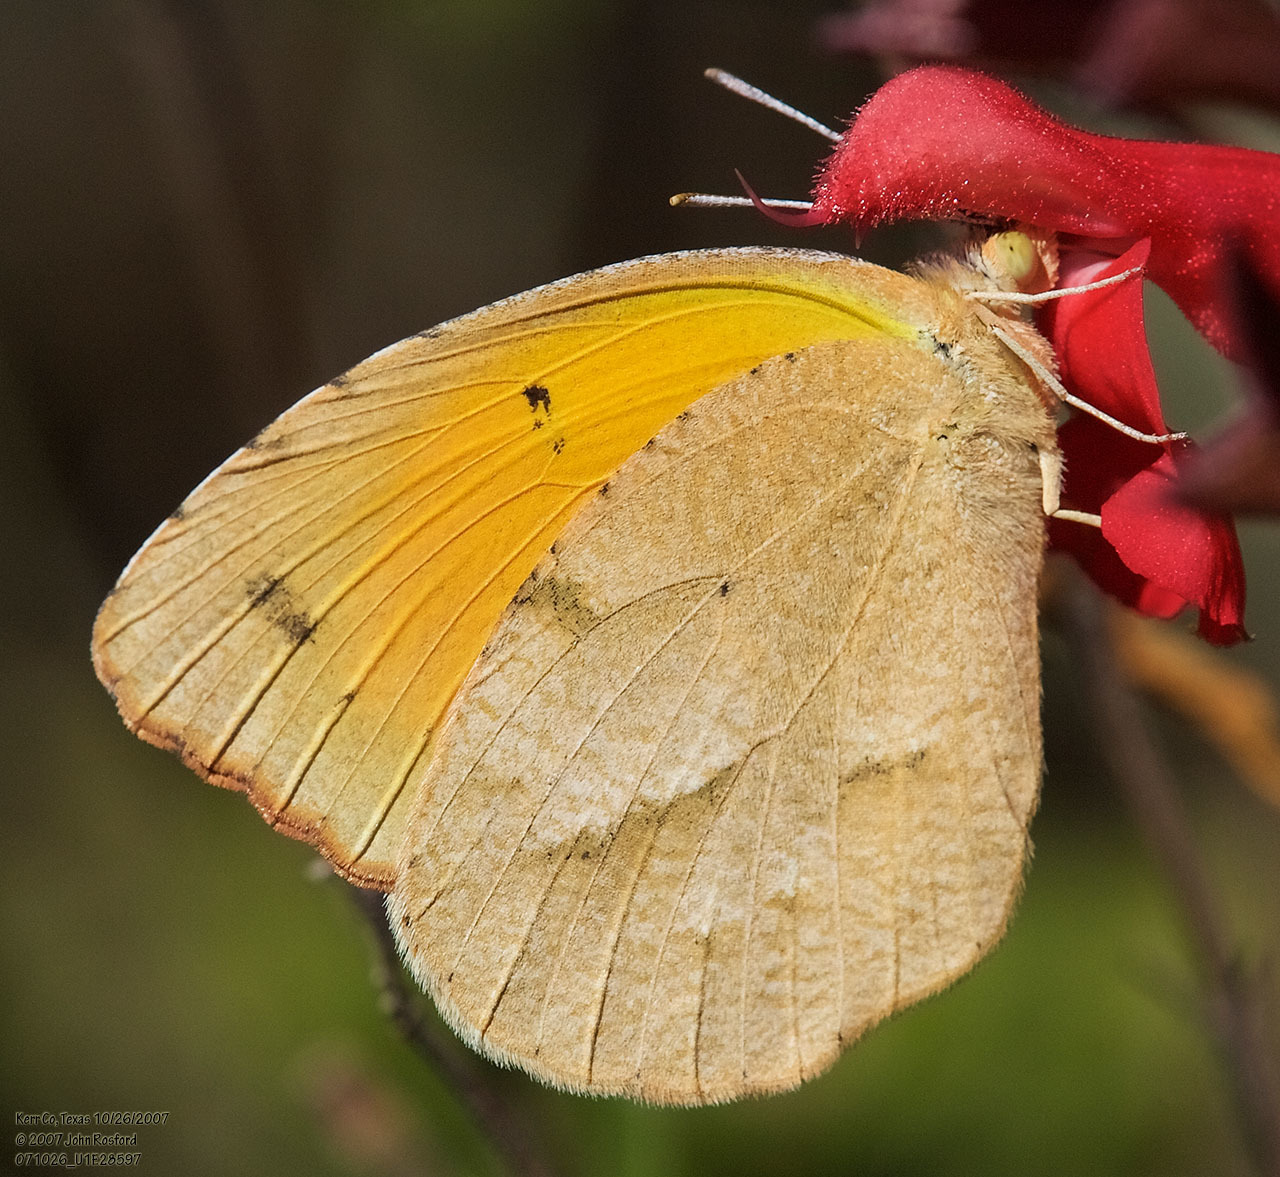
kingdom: Animalia
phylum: Arthropoda
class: Insecta
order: Lepidoptera
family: Pieridae
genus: Abaeis
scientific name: Abaeis nicippe
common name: Sleepy orange
